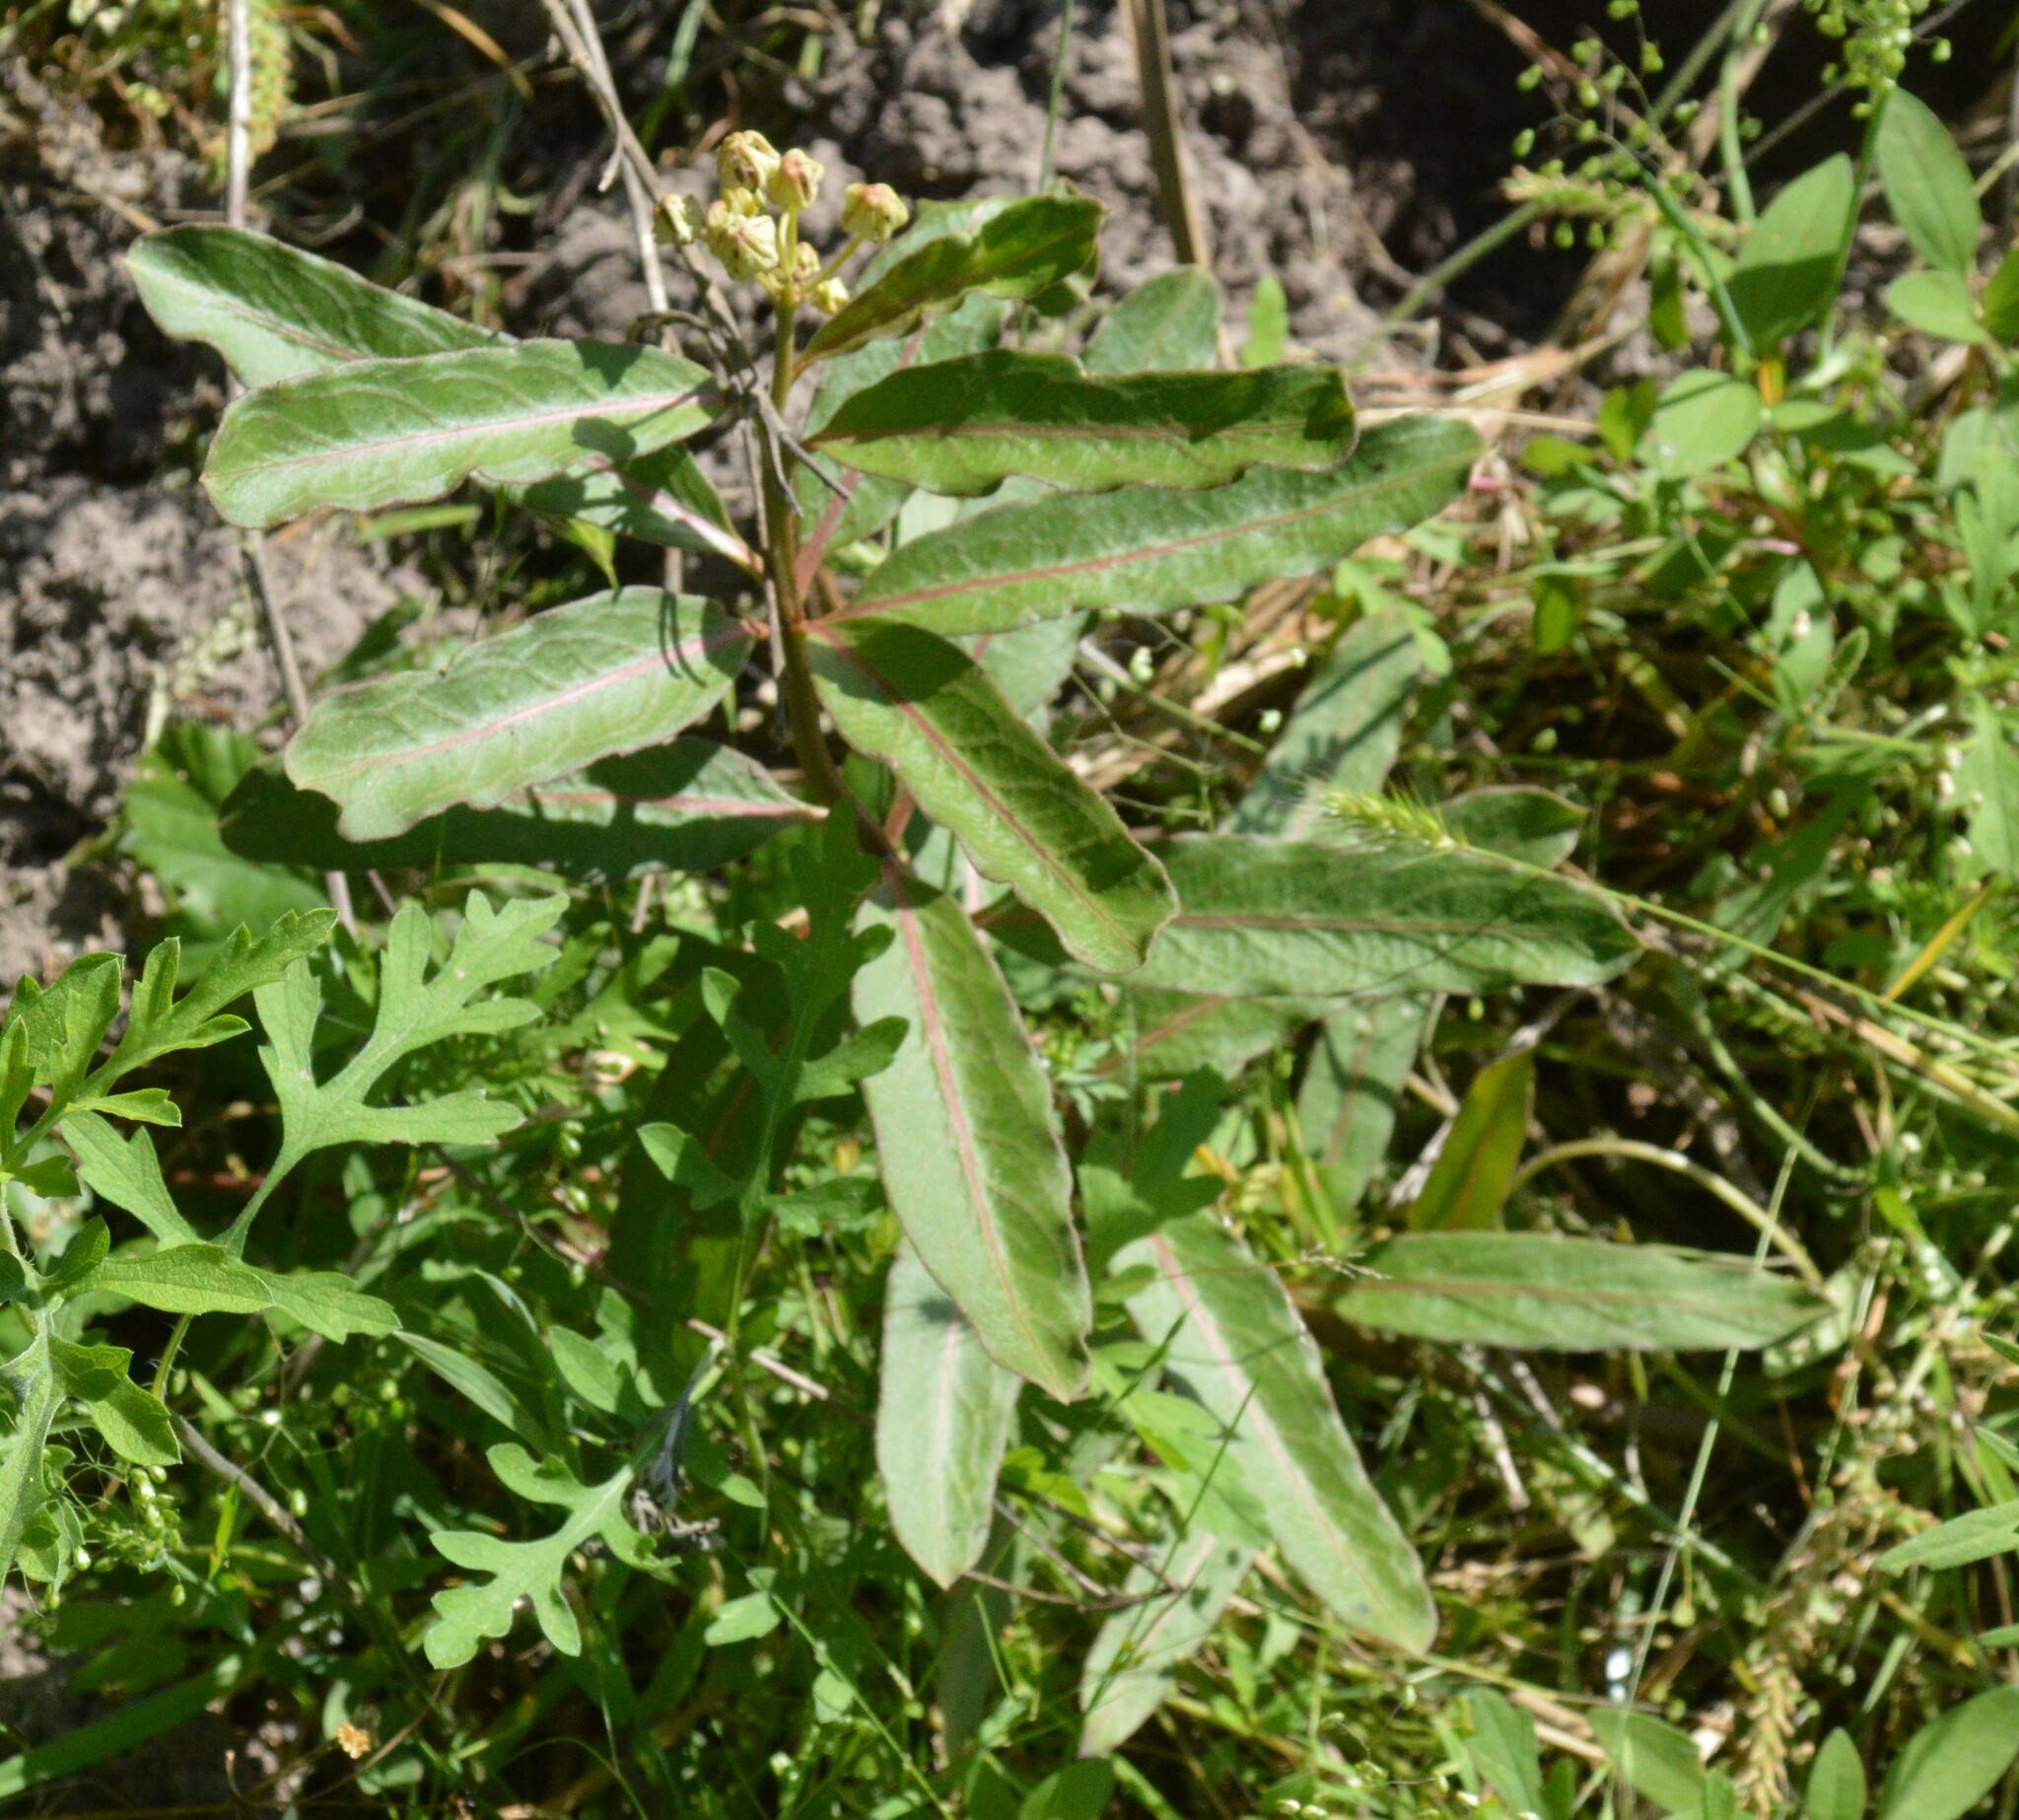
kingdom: Plantae
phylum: Tracheophyta
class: Magnoliopsida
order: Gentianales
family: Apocynaceae
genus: Asclepias
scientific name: Asclepias viridis
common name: Antelope-horns
